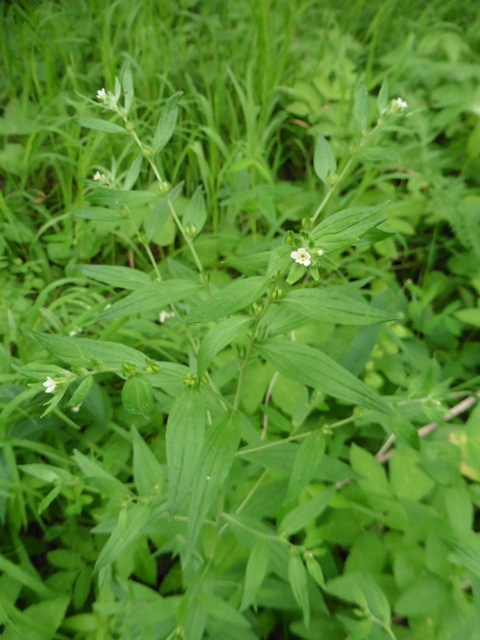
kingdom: Plantae
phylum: Tracheophyta
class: Magnoliopsida
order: Boraginales
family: Boraginaceae
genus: Lithospermum
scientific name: Lithospermum officinale
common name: Common gromwell
